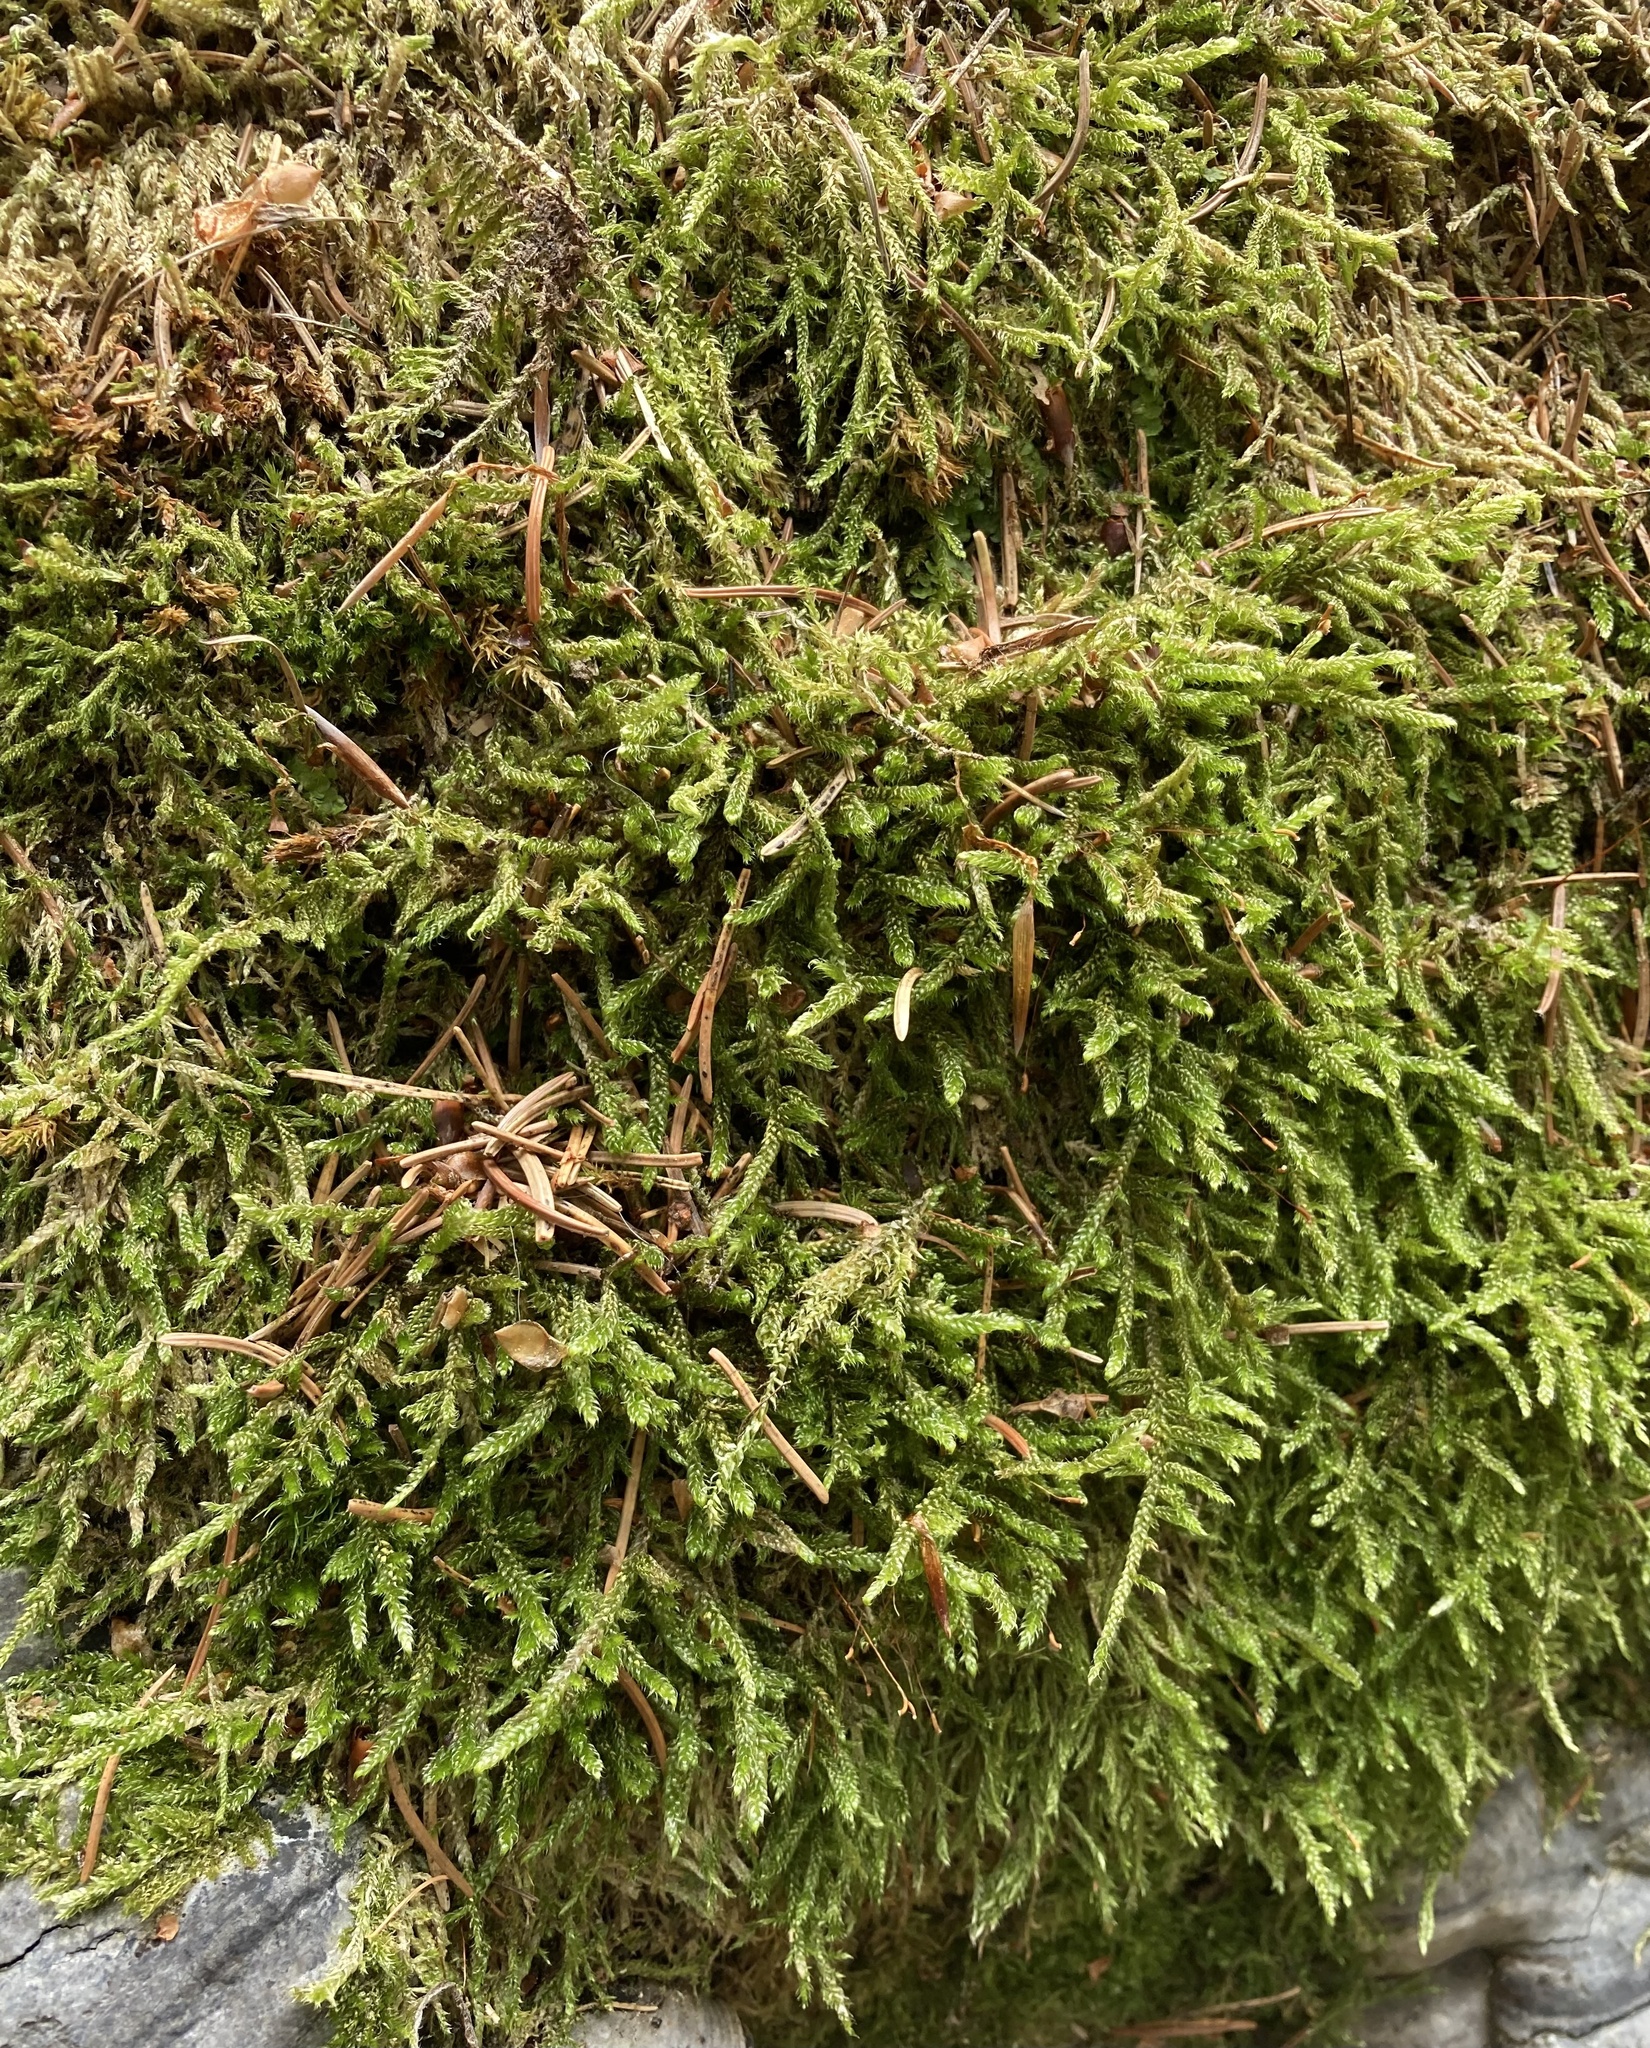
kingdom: Plantae
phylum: Bryophyta
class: Bryopsida
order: Hypnales
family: Hypnaceae
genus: Hypnum
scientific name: Hypnum cupressiforme
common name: Cypress-leaved plait-moss
